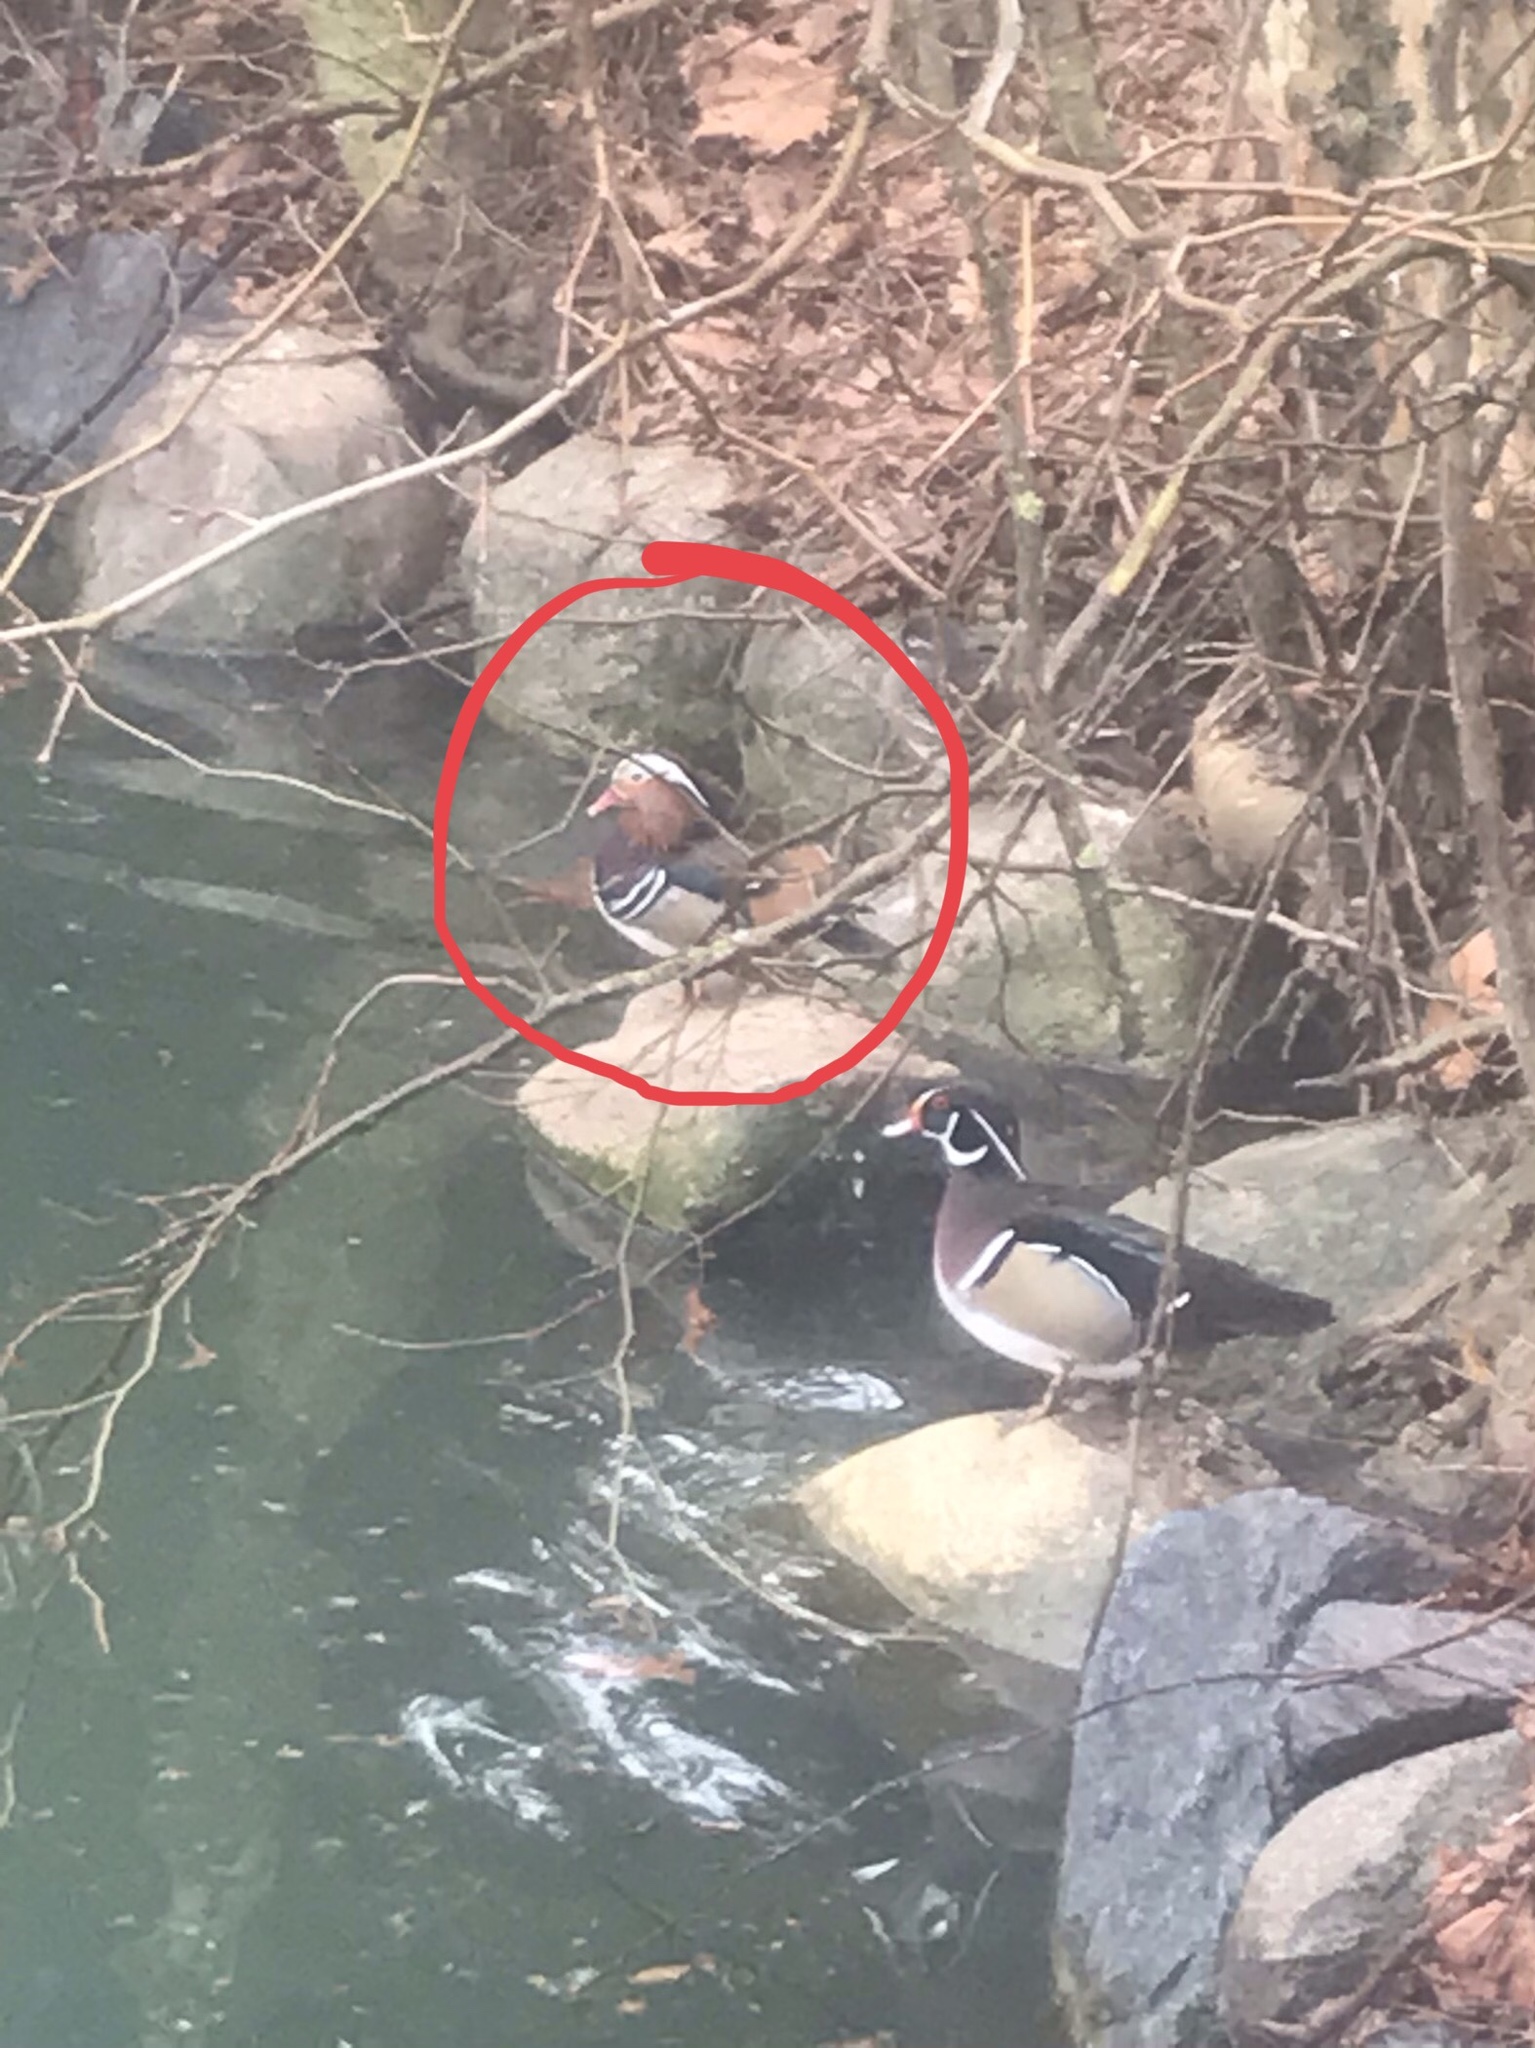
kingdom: Animalia
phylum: Chordata
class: Aves
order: Anseriformes
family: Anatidae
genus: Aix
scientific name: Aix galericulata
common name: Mandarin duck
